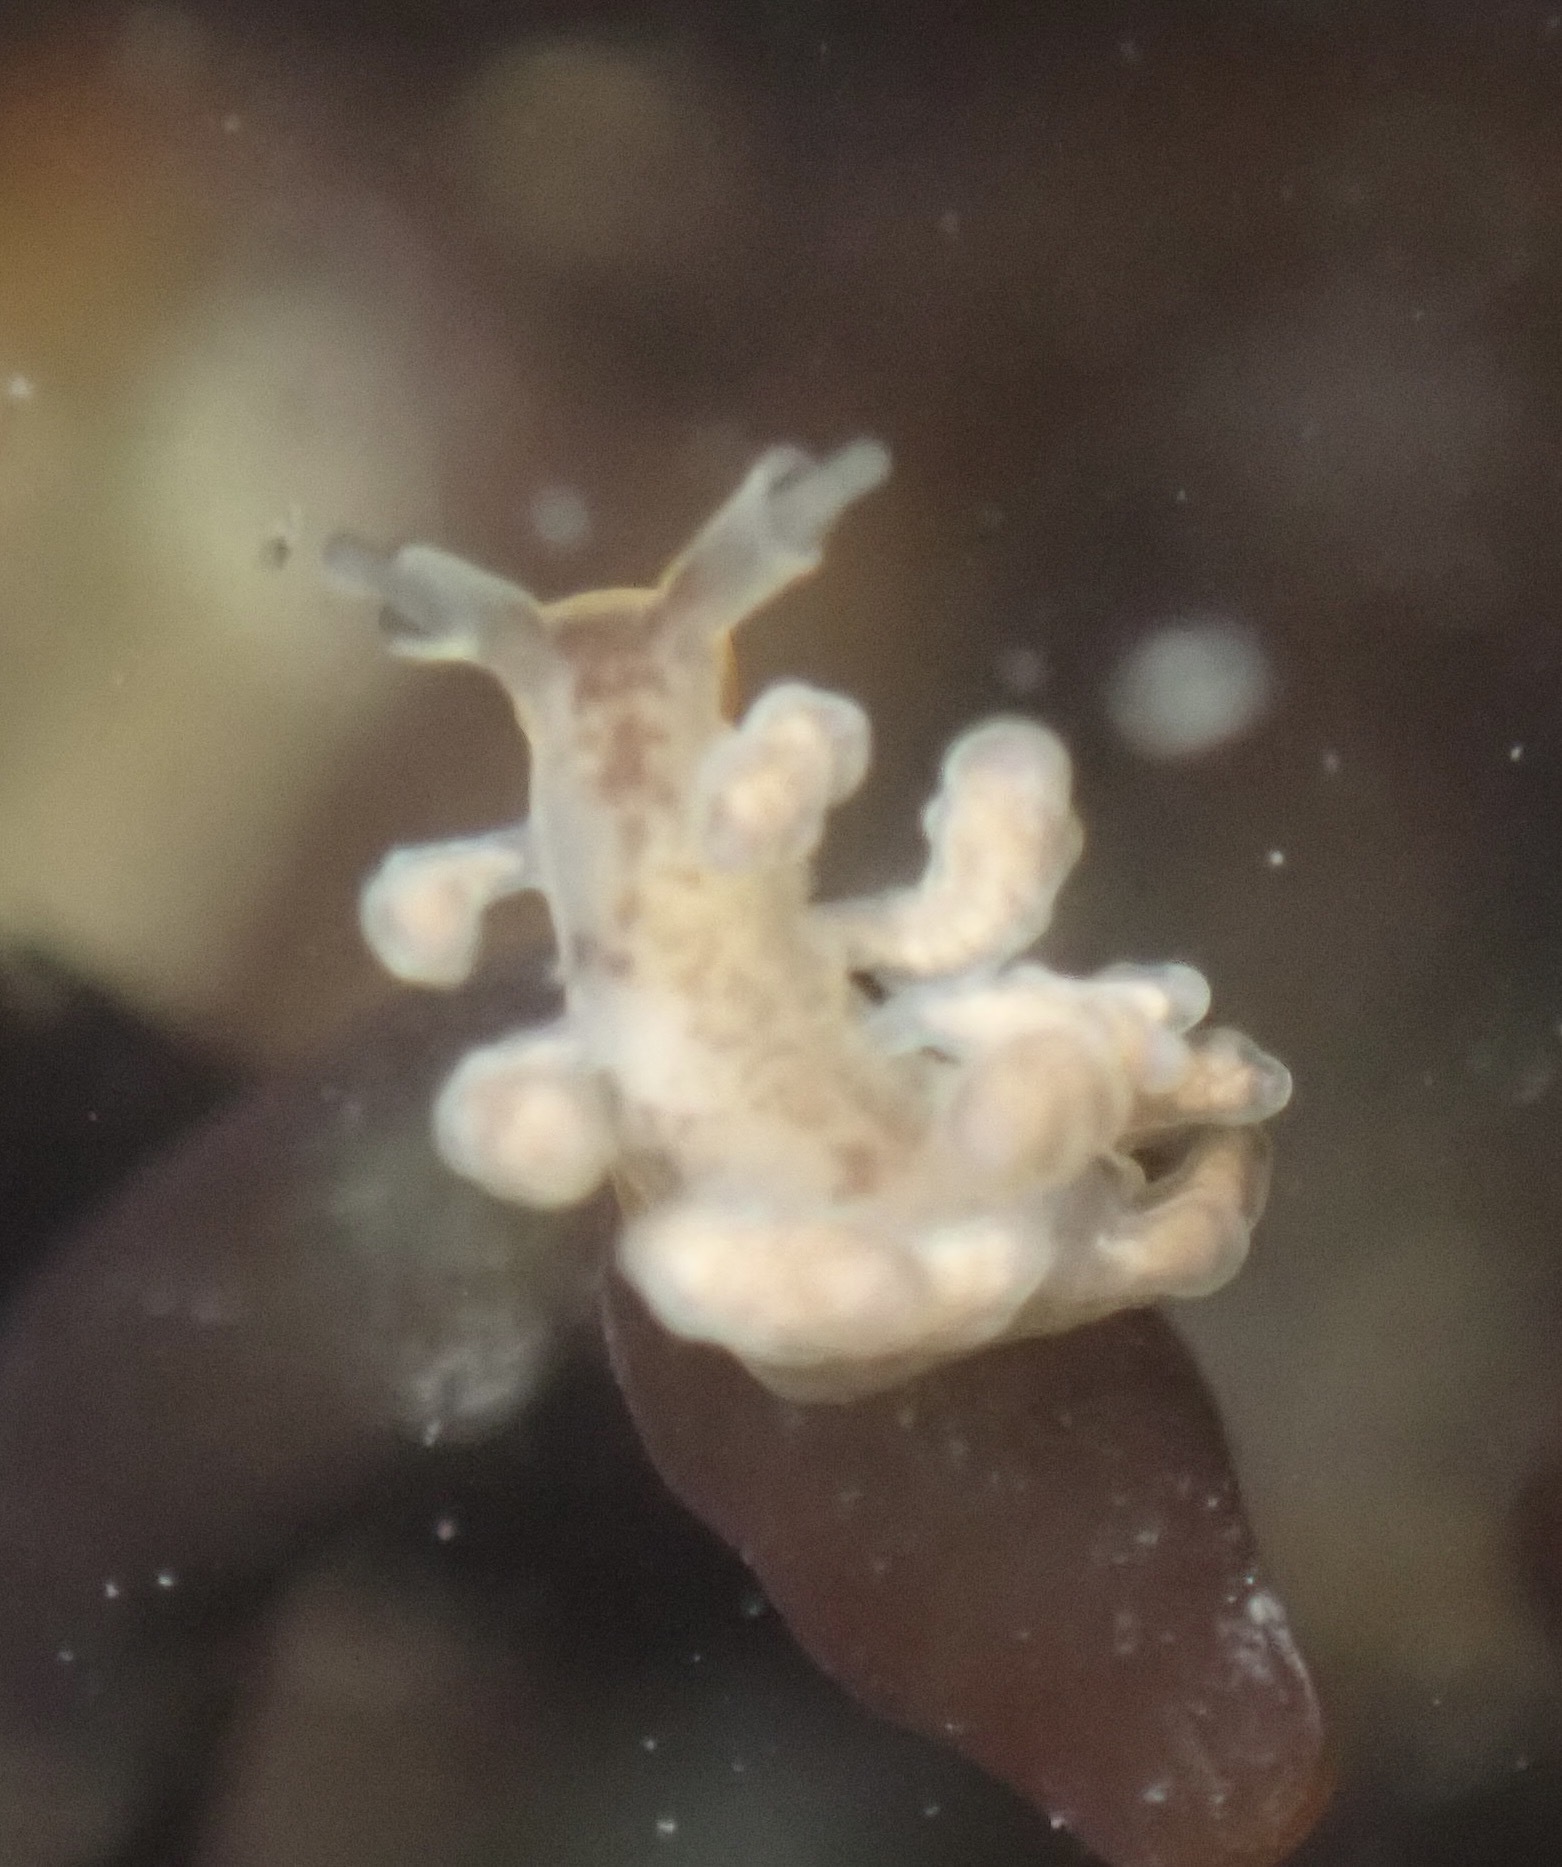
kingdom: Animalia
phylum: Mollusca
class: Gastropoda
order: Nudibranchia
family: Dotidae
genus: Doto
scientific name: Doto columbiana
